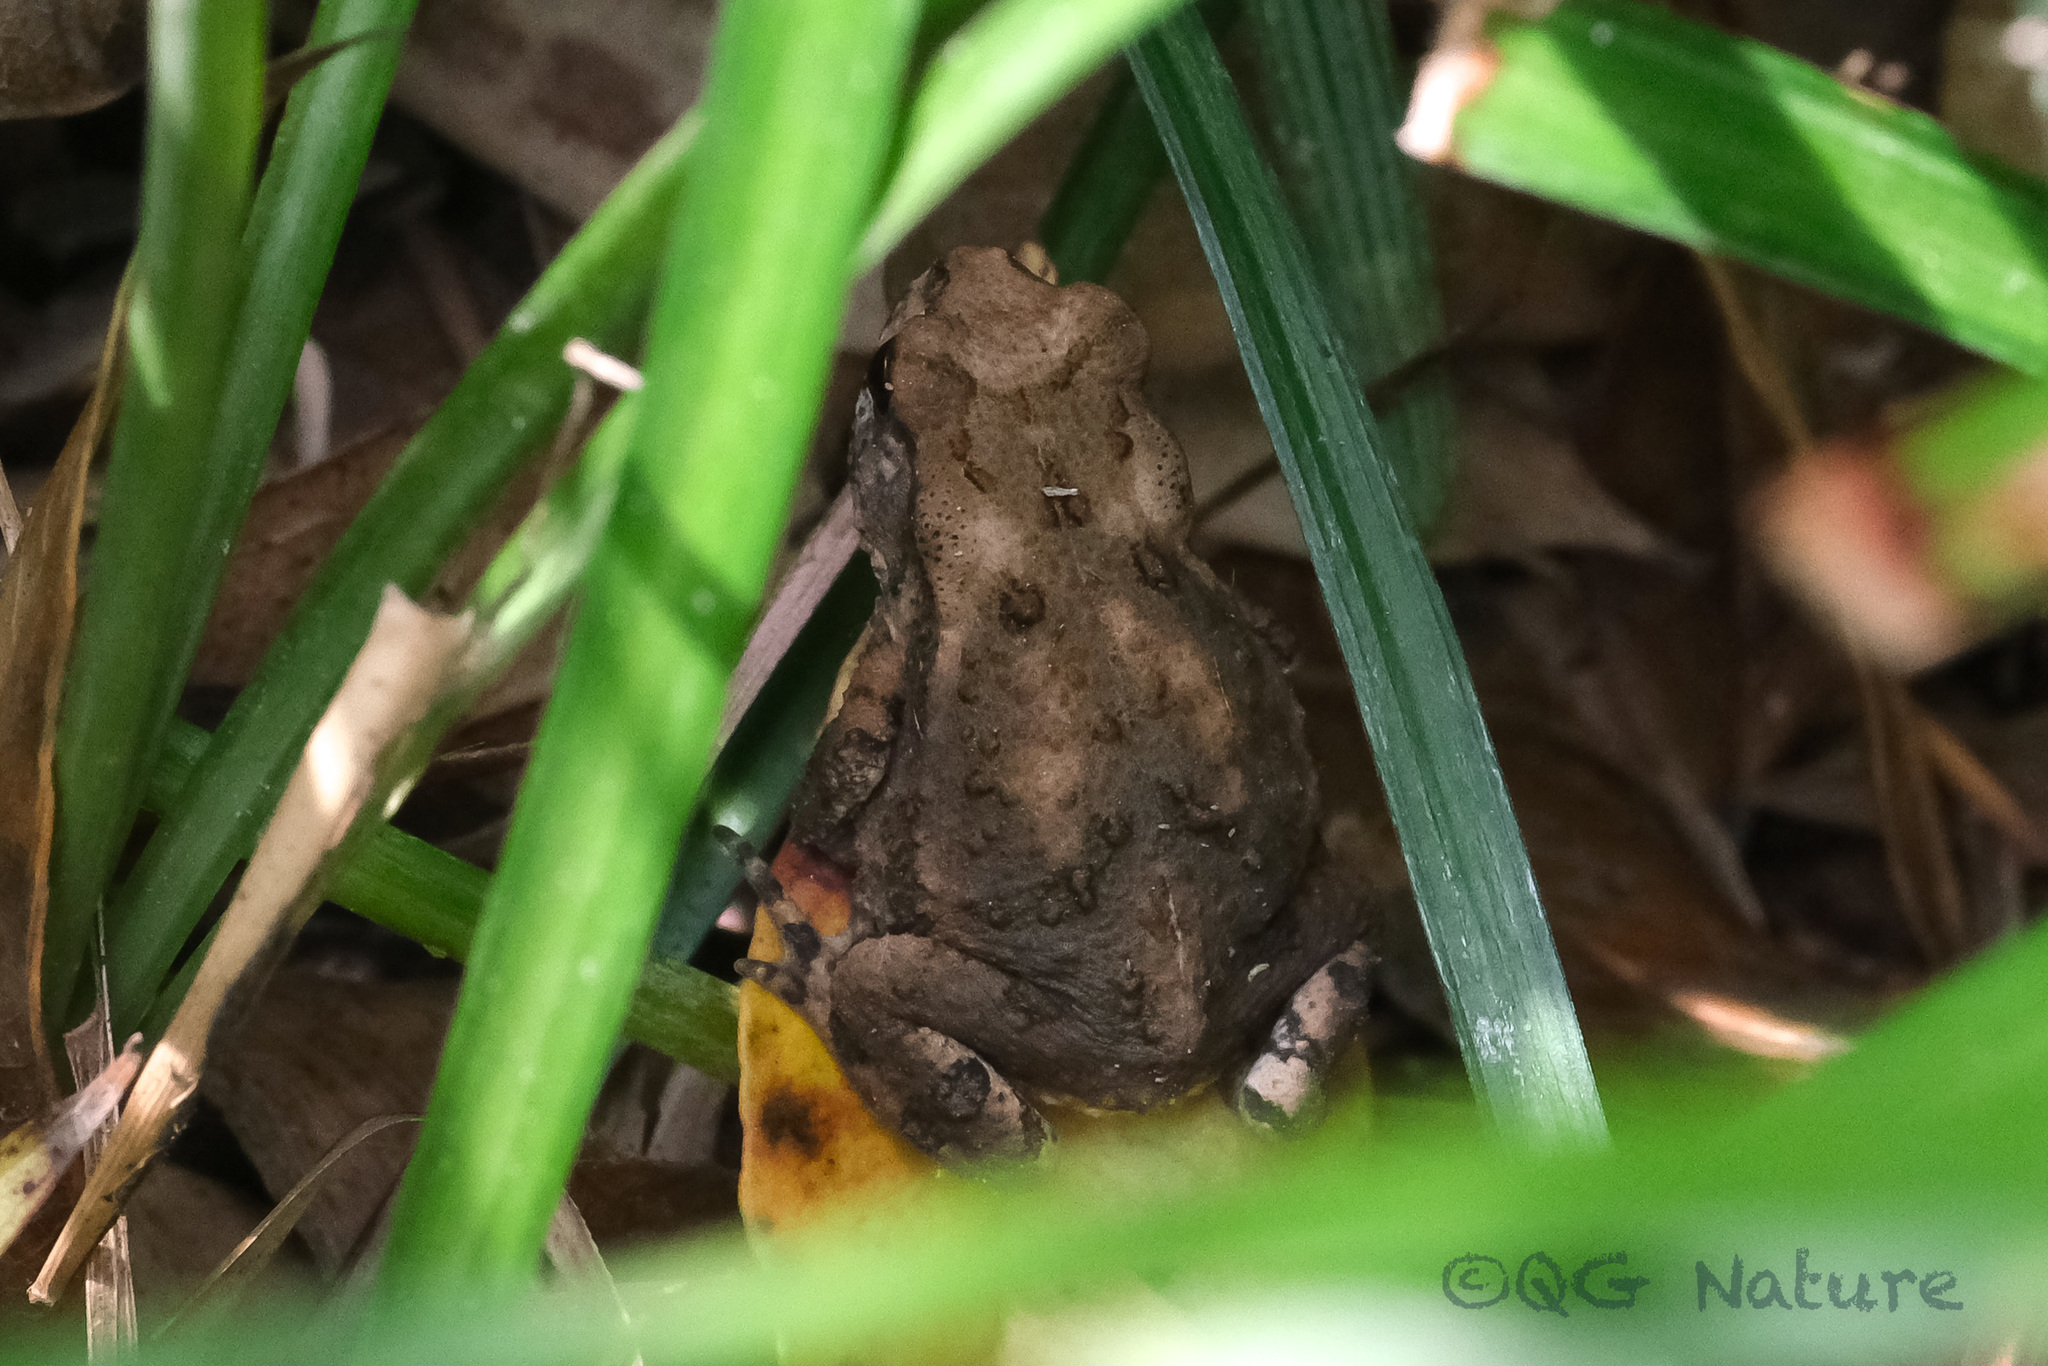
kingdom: Animalia
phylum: Chordata
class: Amphibia
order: Anura
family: Bufonidae
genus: Bufo
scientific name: Bufo gargarizans
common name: Asiatic toad
